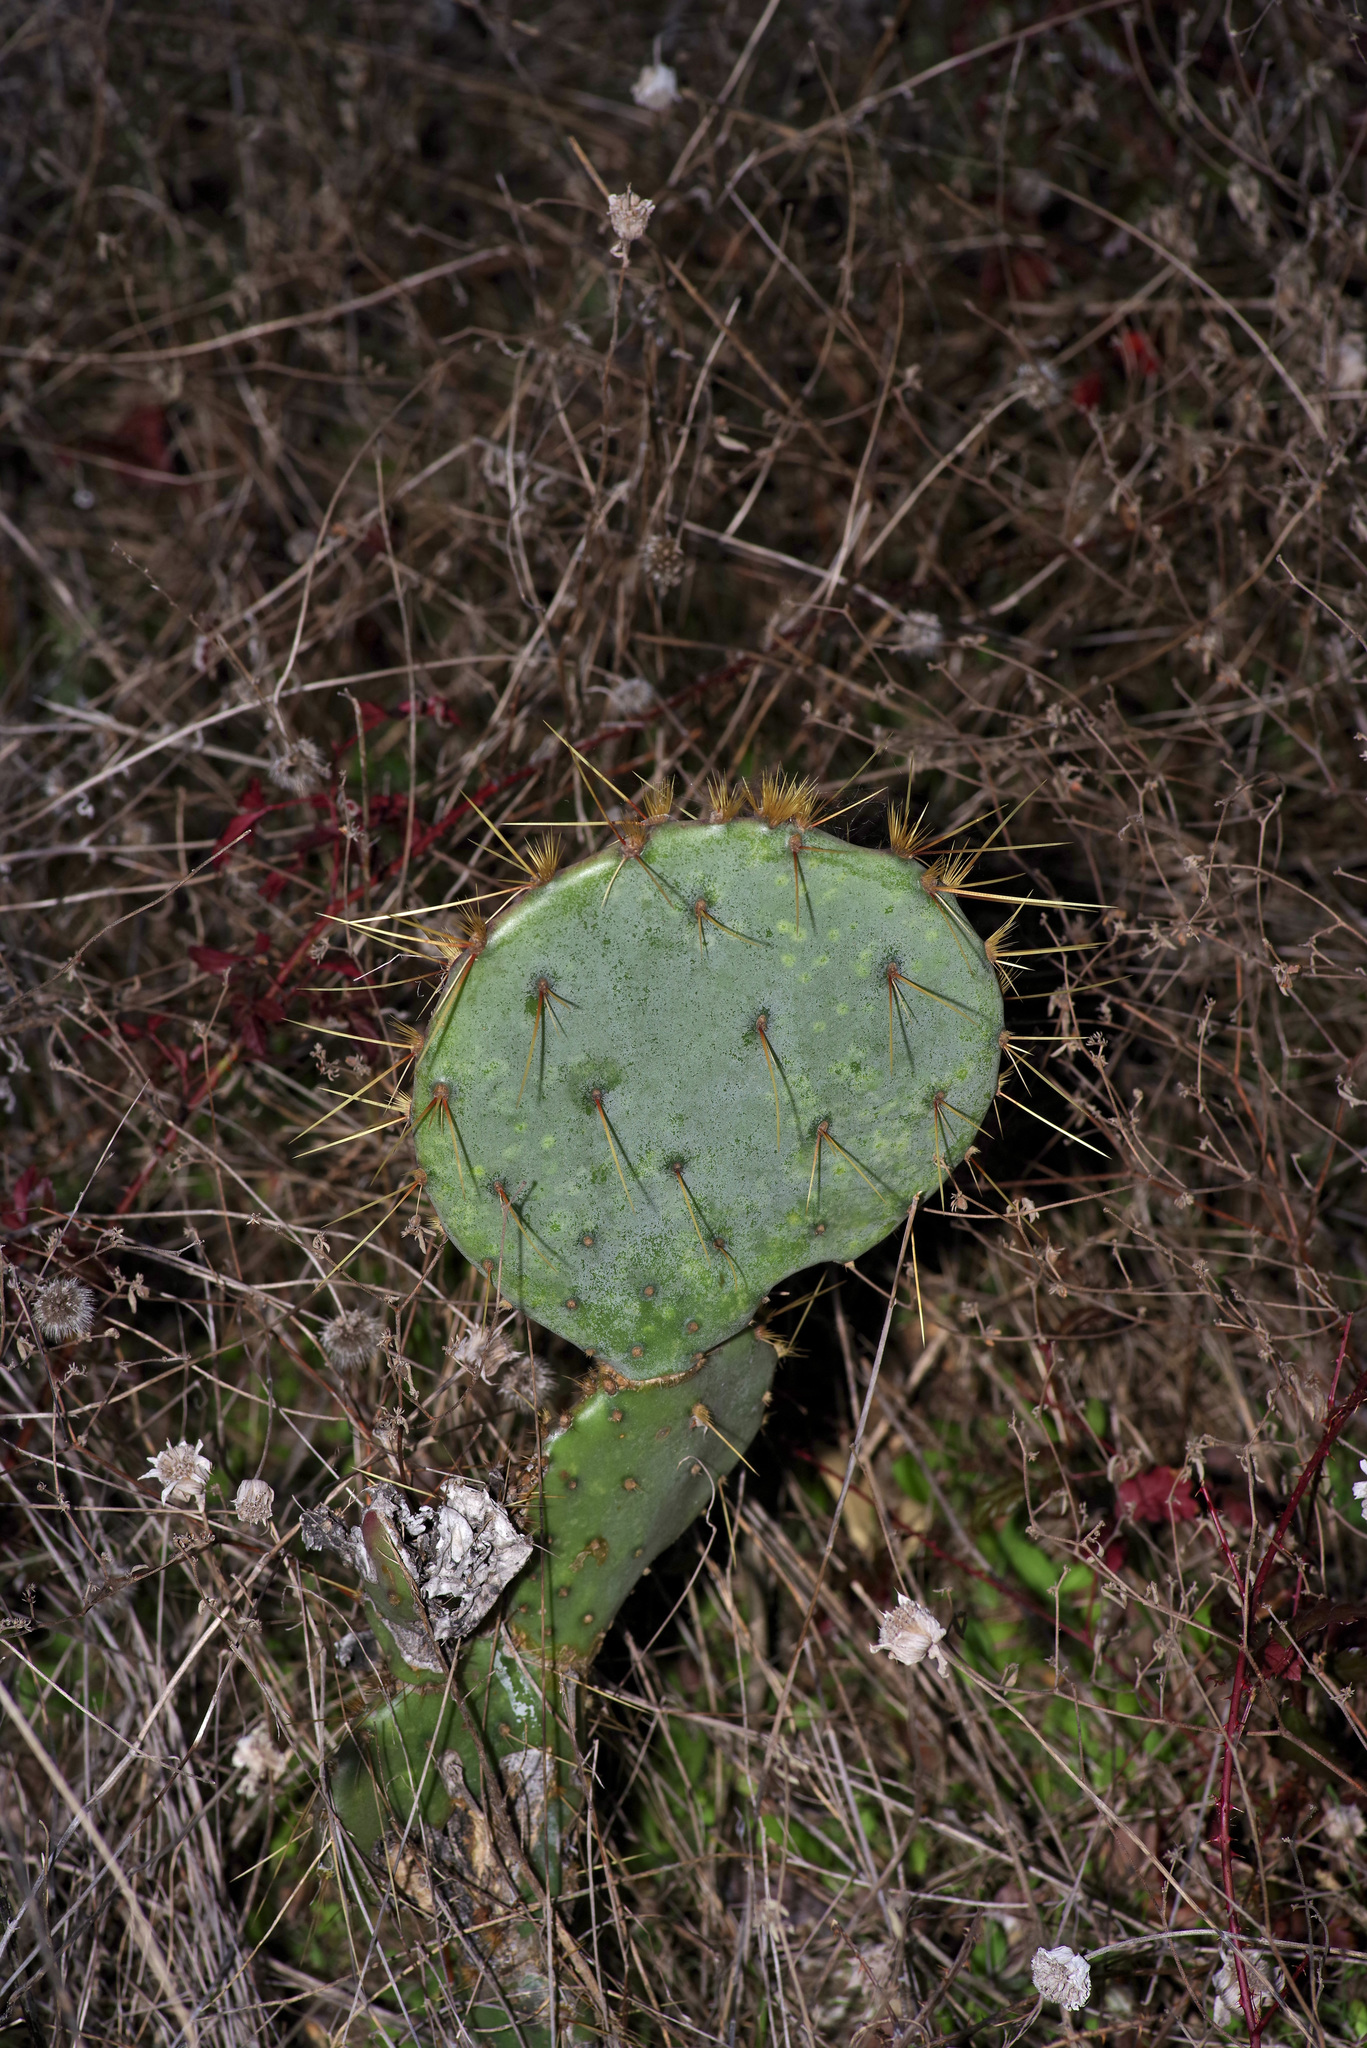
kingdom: Plantae
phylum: Tracheophyta
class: Magnoliopsida
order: Caryophyllales
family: Cactaceae
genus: Opuntia
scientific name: Opuntia orbiculata
